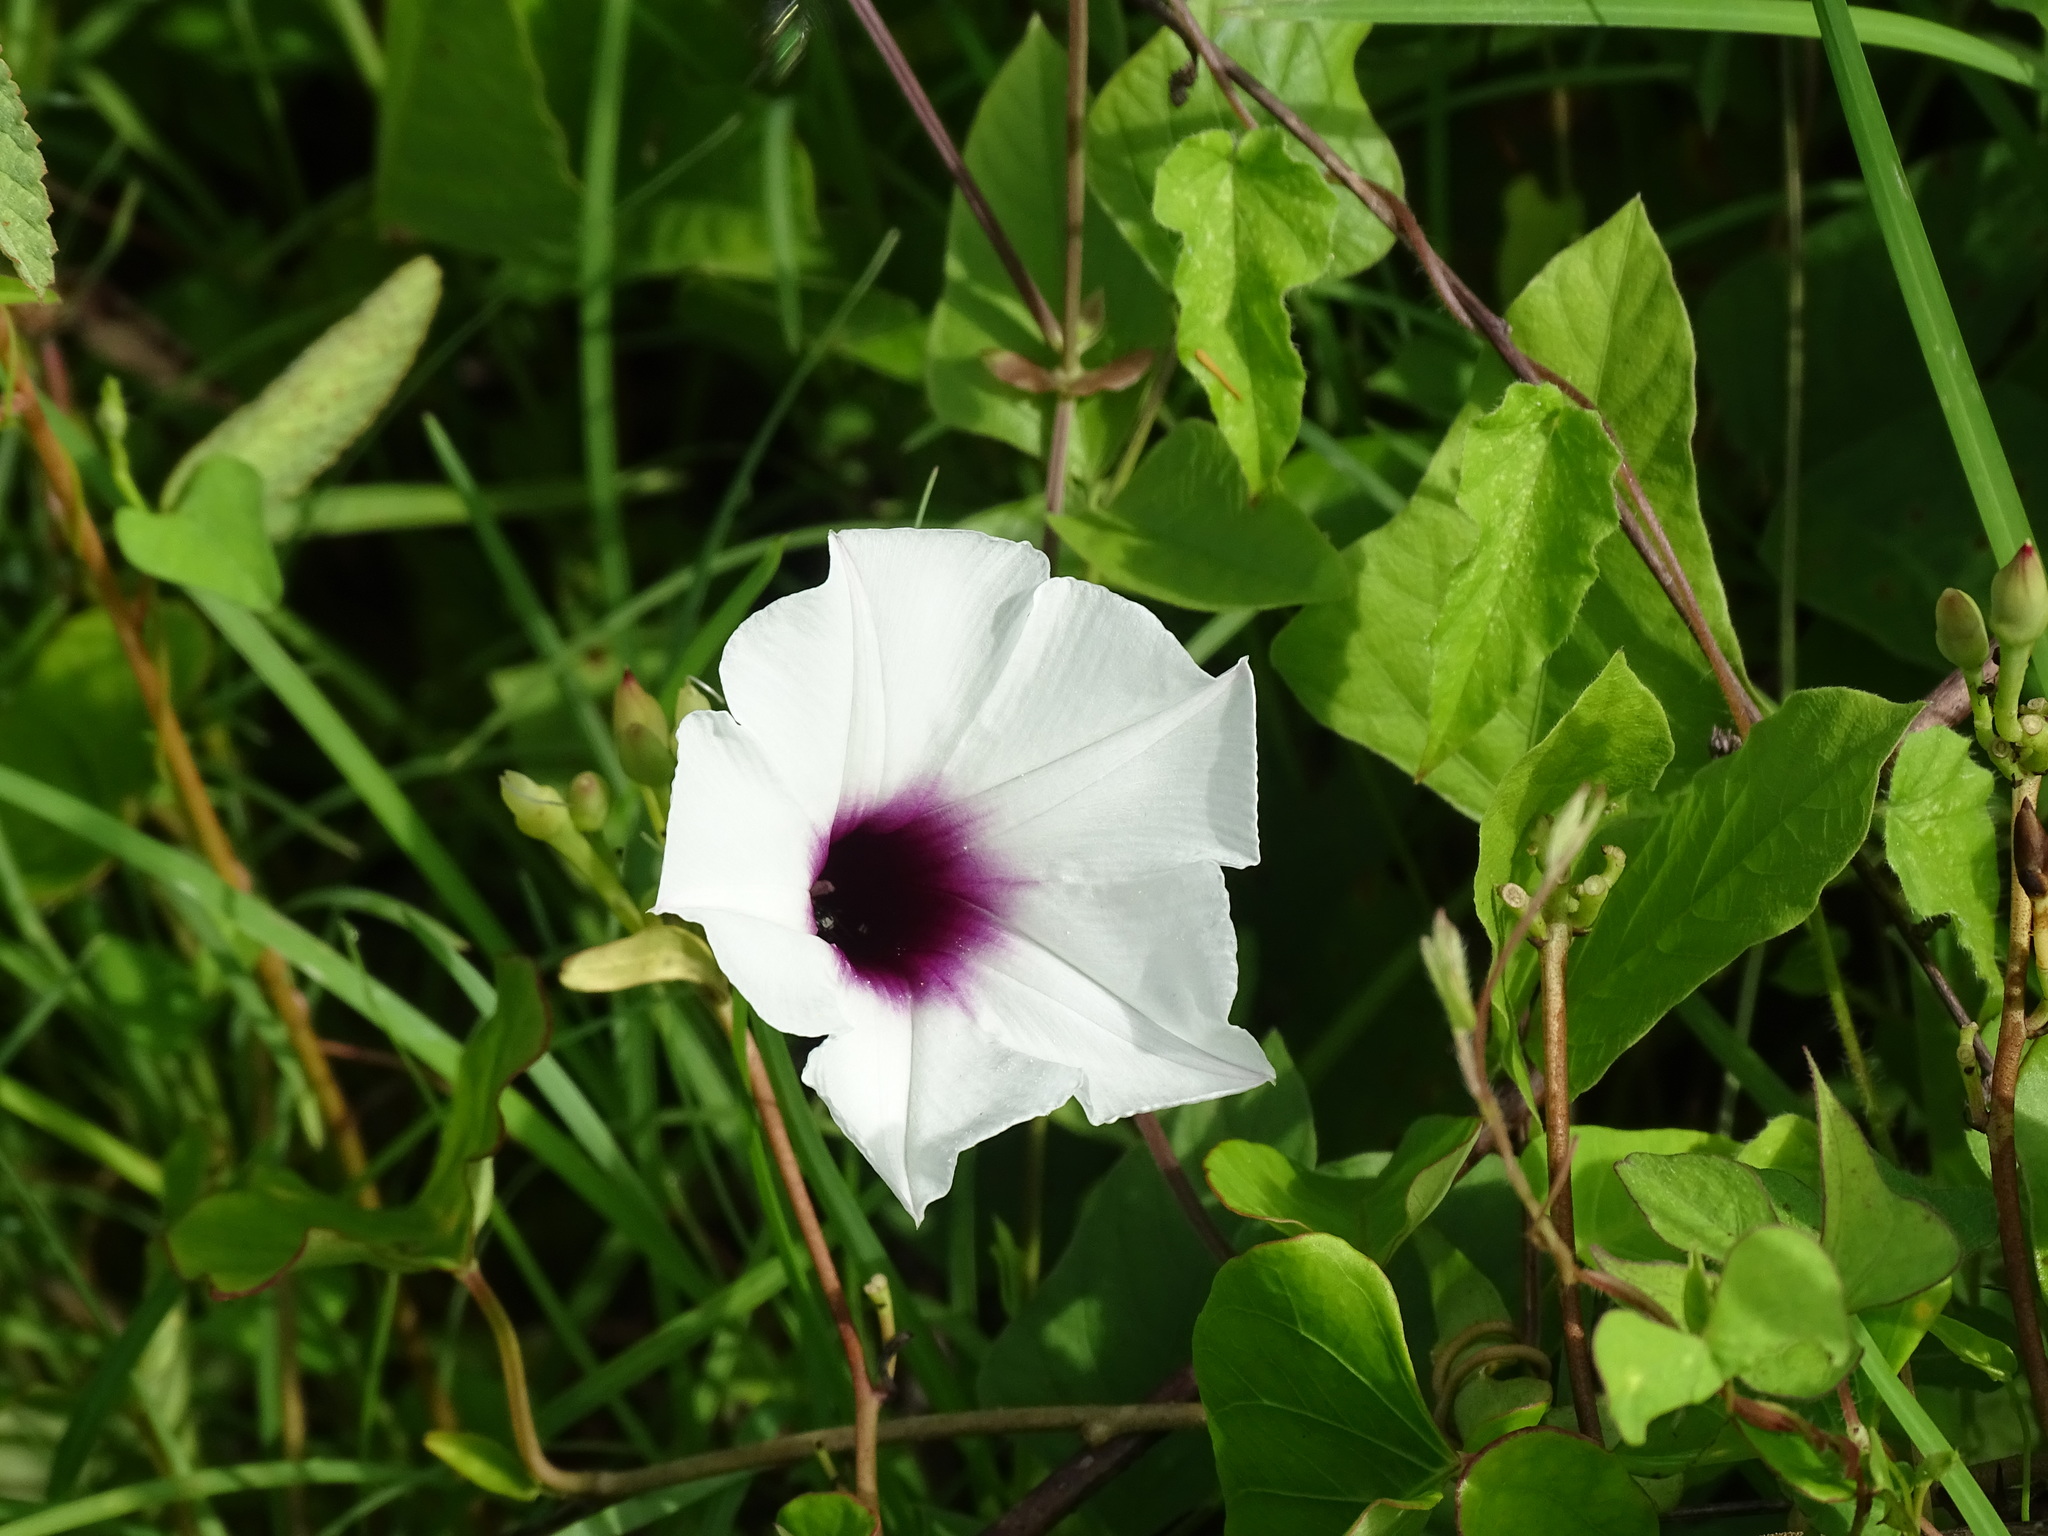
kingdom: Plantae
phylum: Tracheophyta
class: Magnoliopsida
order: Solanales
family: Convolvulaceae
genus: Ipomoea
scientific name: Ipomoea anisomeres
